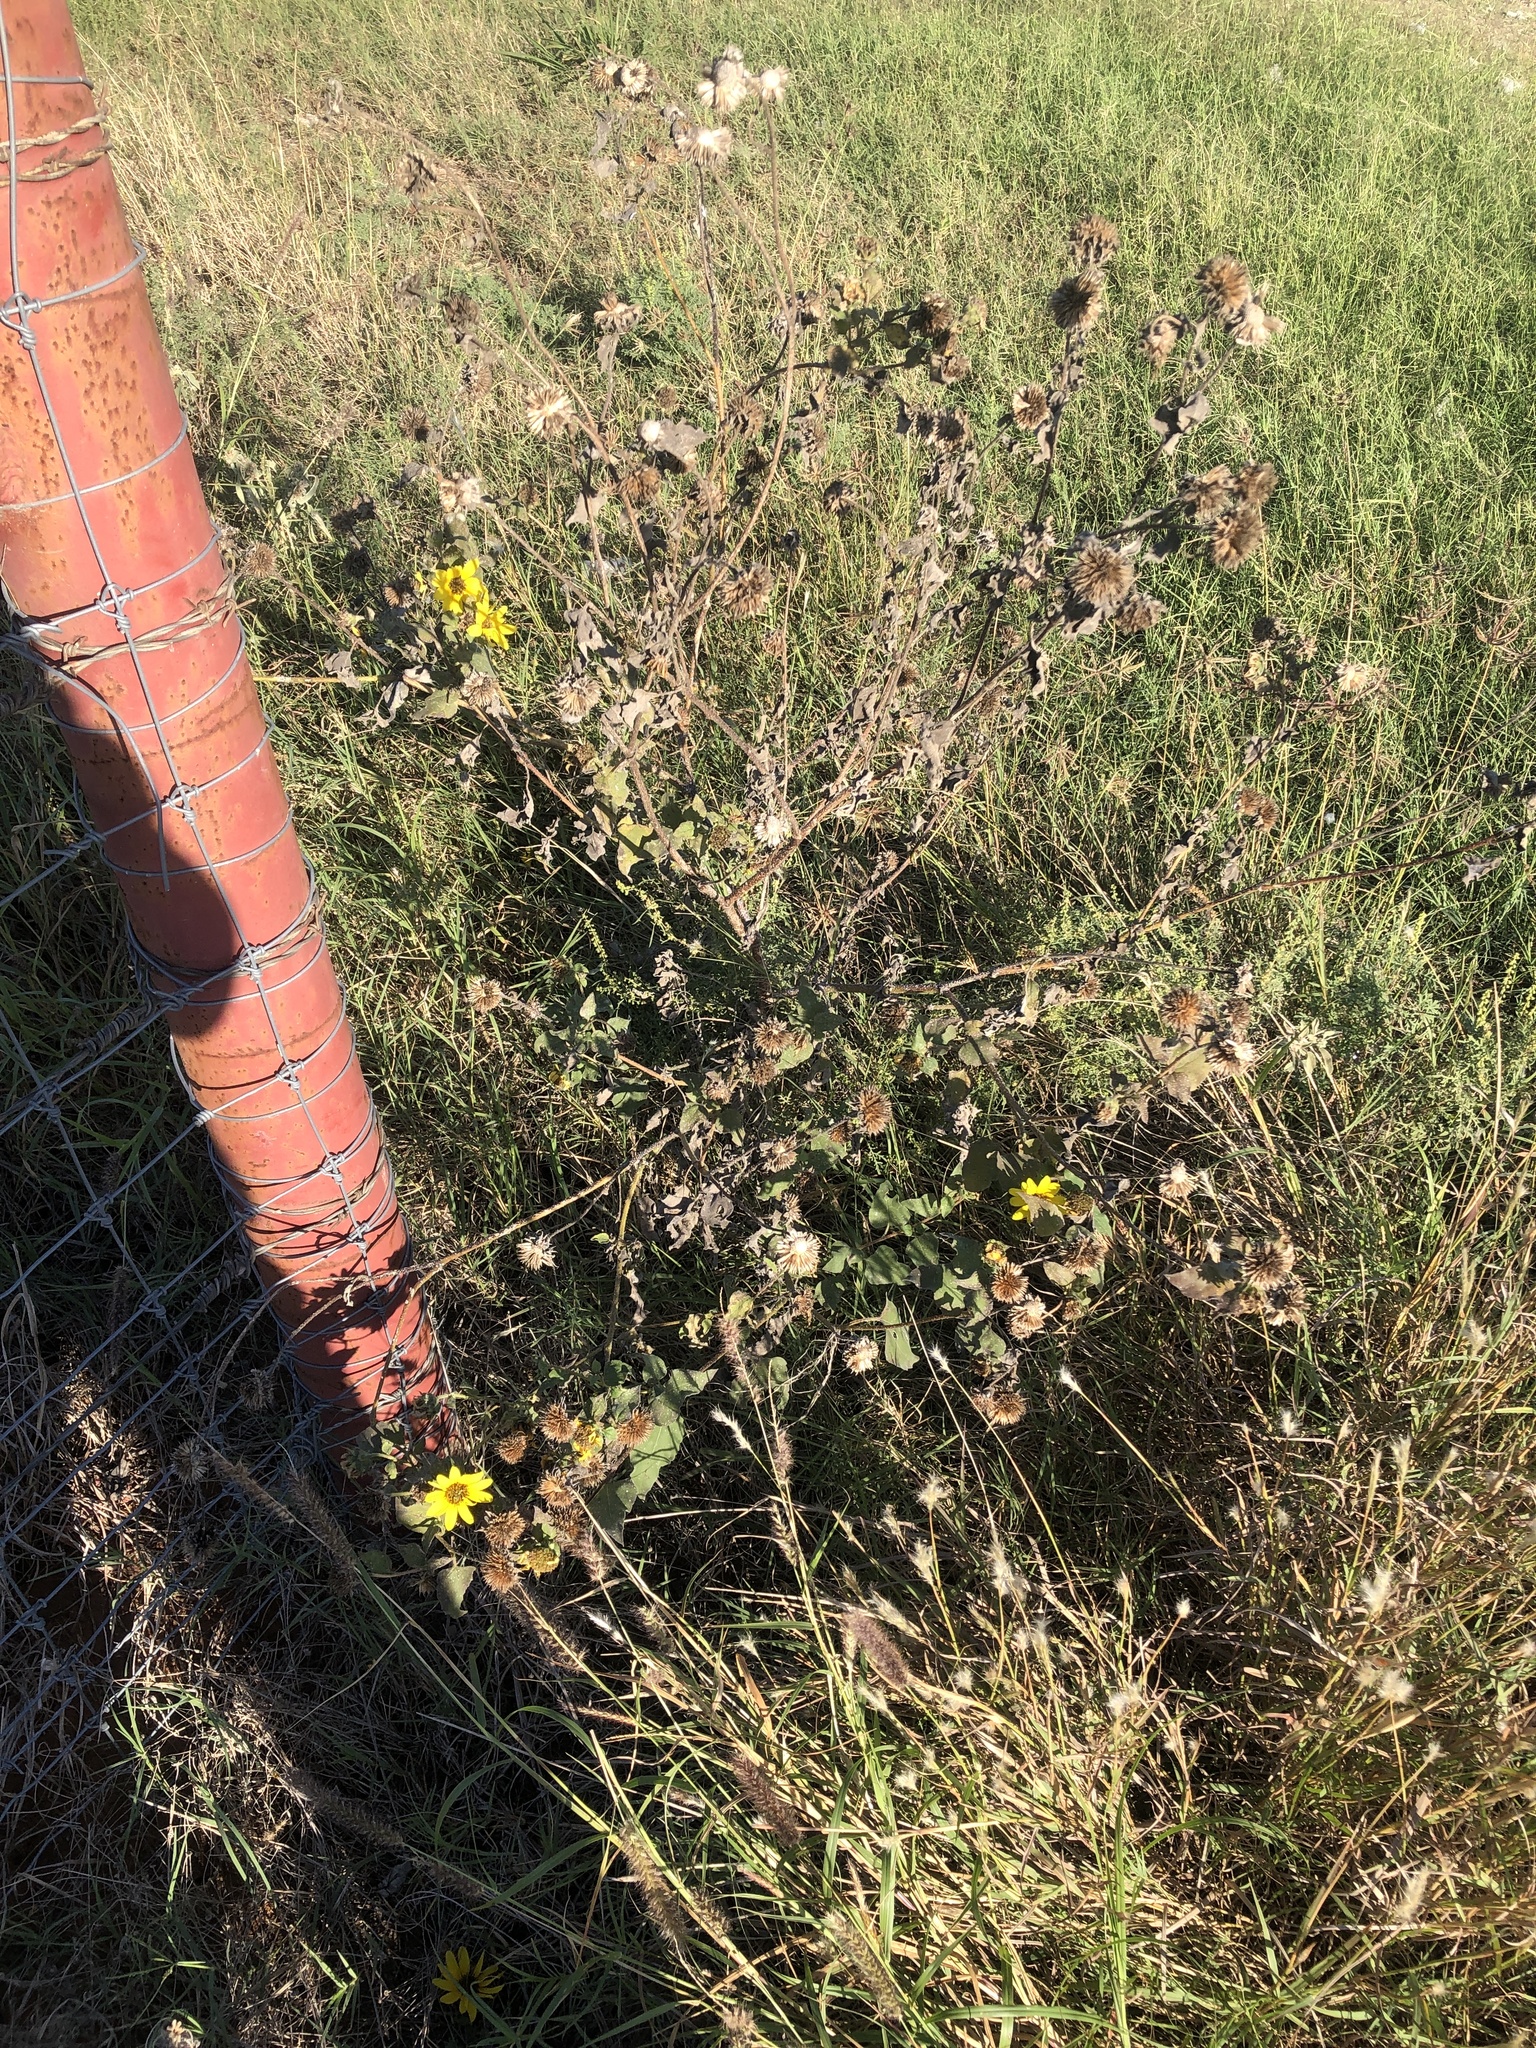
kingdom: Plantae
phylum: Tracheophyta
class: Magnoliopsida
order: Asterales
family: Asteraceae
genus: Helianthus
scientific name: Helianthus annuus
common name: Sunflower
